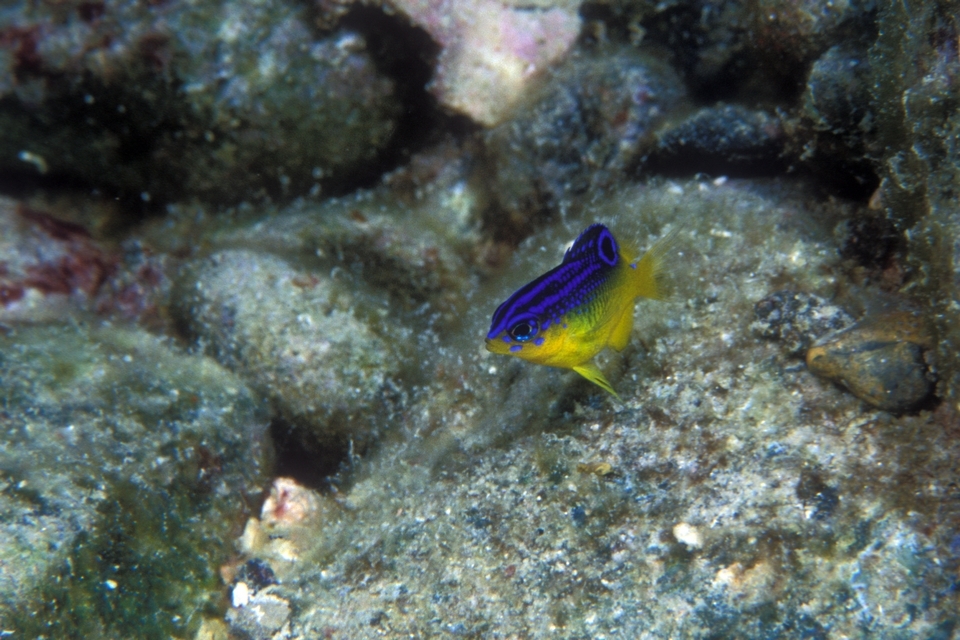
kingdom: Animalia
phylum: Chordata
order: Perciformes
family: Pomacentridae
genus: Stegastes
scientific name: Stegastes xanthurus
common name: Cocoa damselfish
